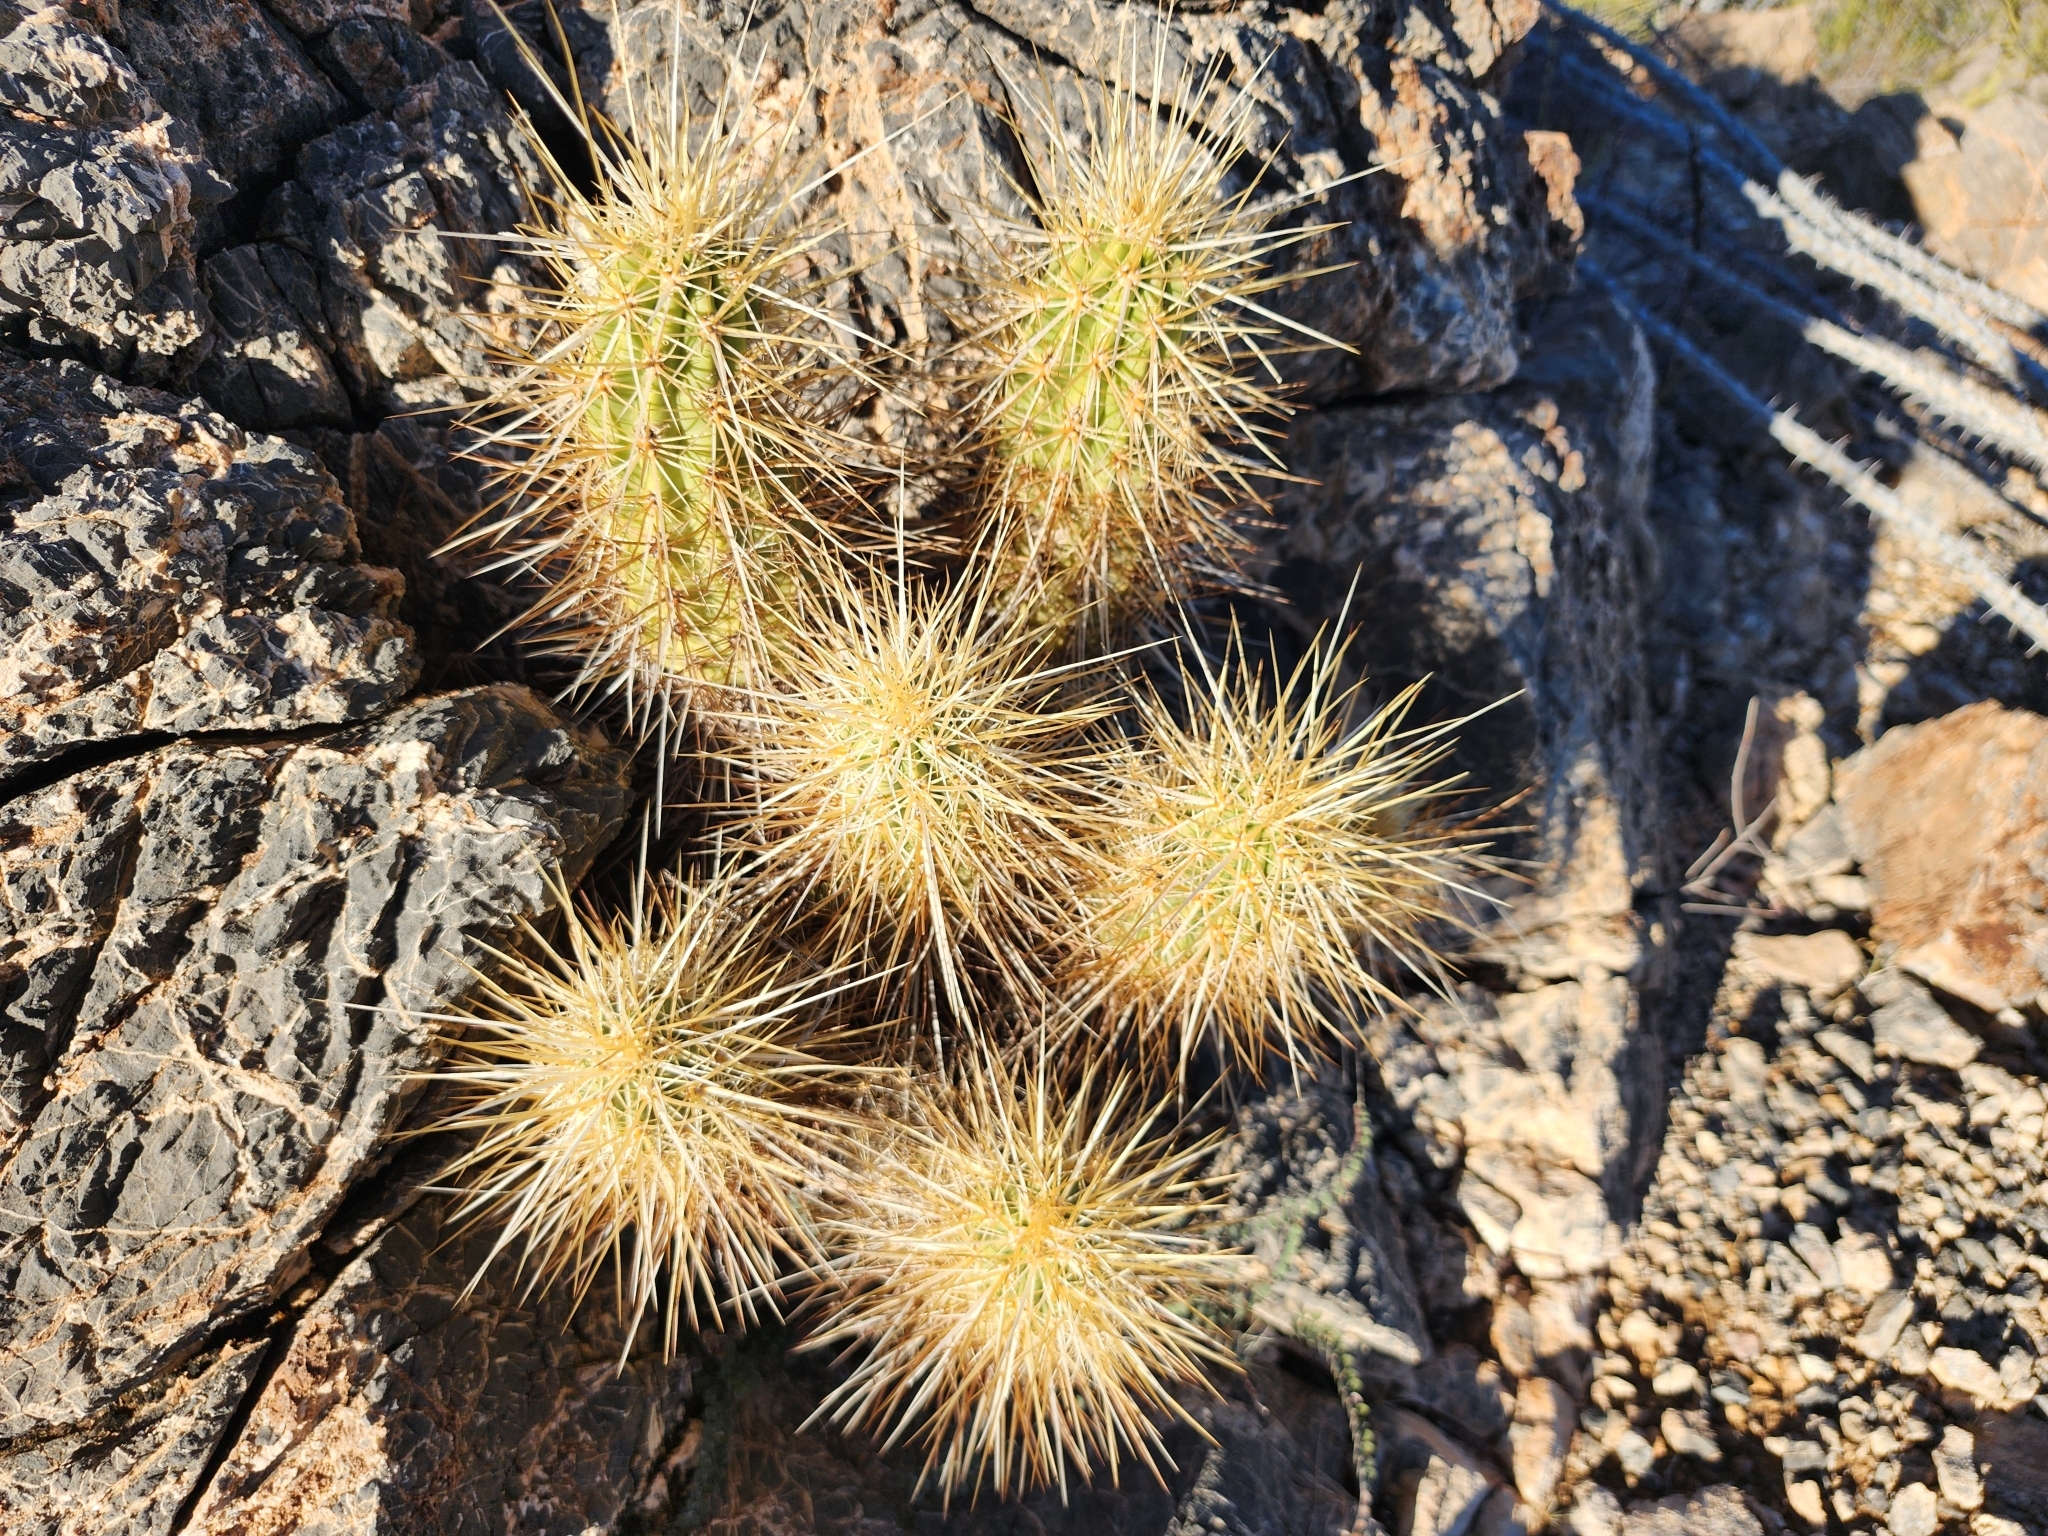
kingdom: Plantae
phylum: Tracheophyta
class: Magnoliopsida
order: Caryophyllales
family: Cactaceae
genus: Echinocereus
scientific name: Echinocereus nicholii
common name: Nichol's hedgehog cactus
